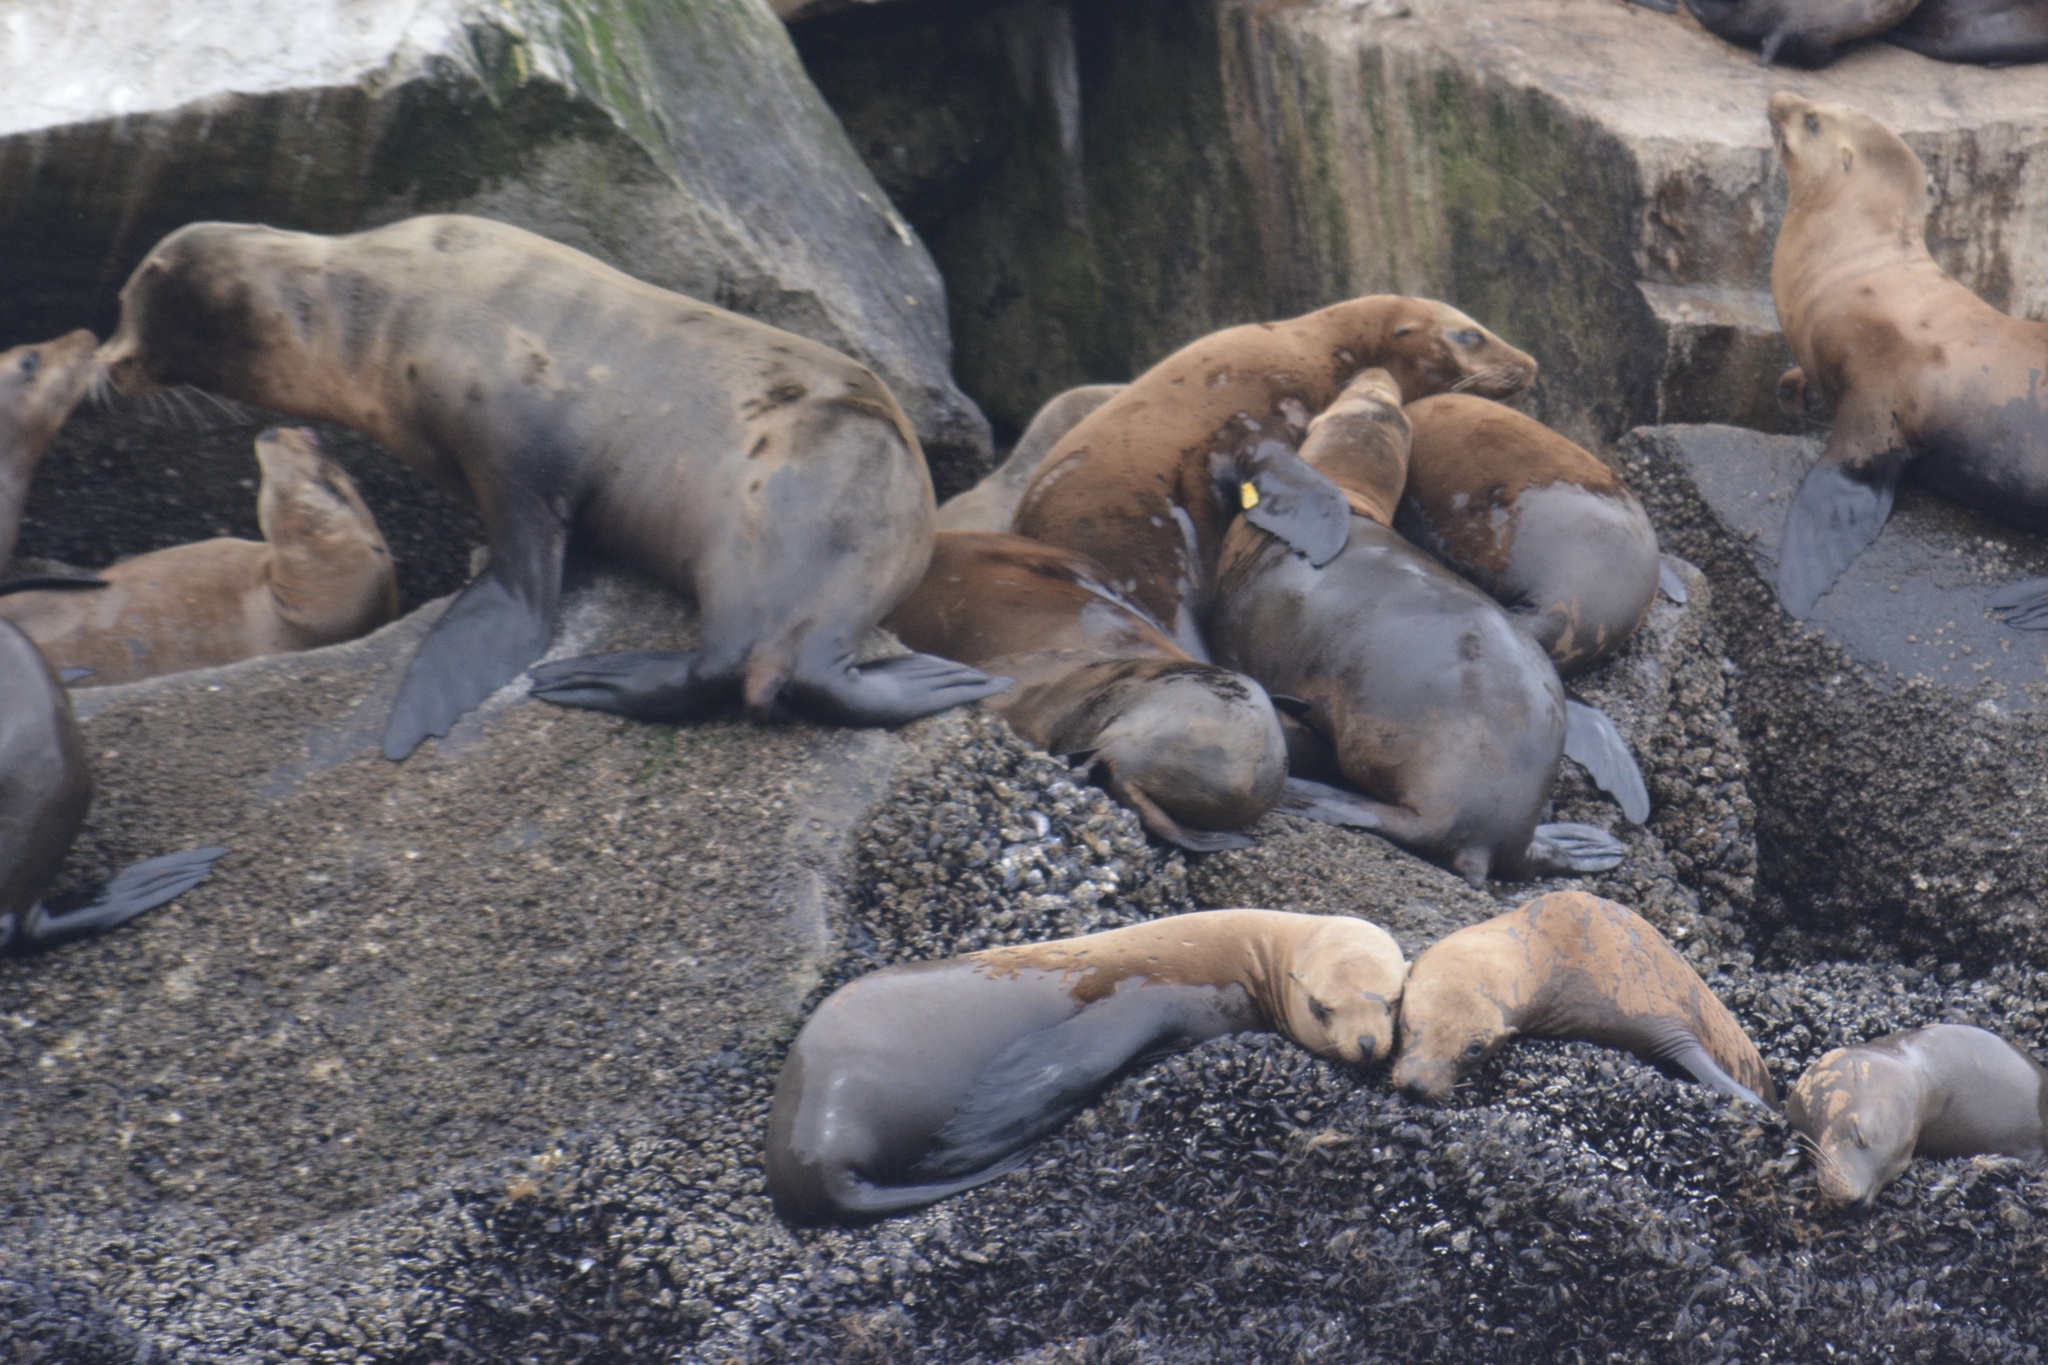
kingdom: Animalia
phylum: Chordata
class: Mammalia
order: Carnivora
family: Otariidae
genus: Zalophus
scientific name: Zalophus californianus
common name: California sea lion
